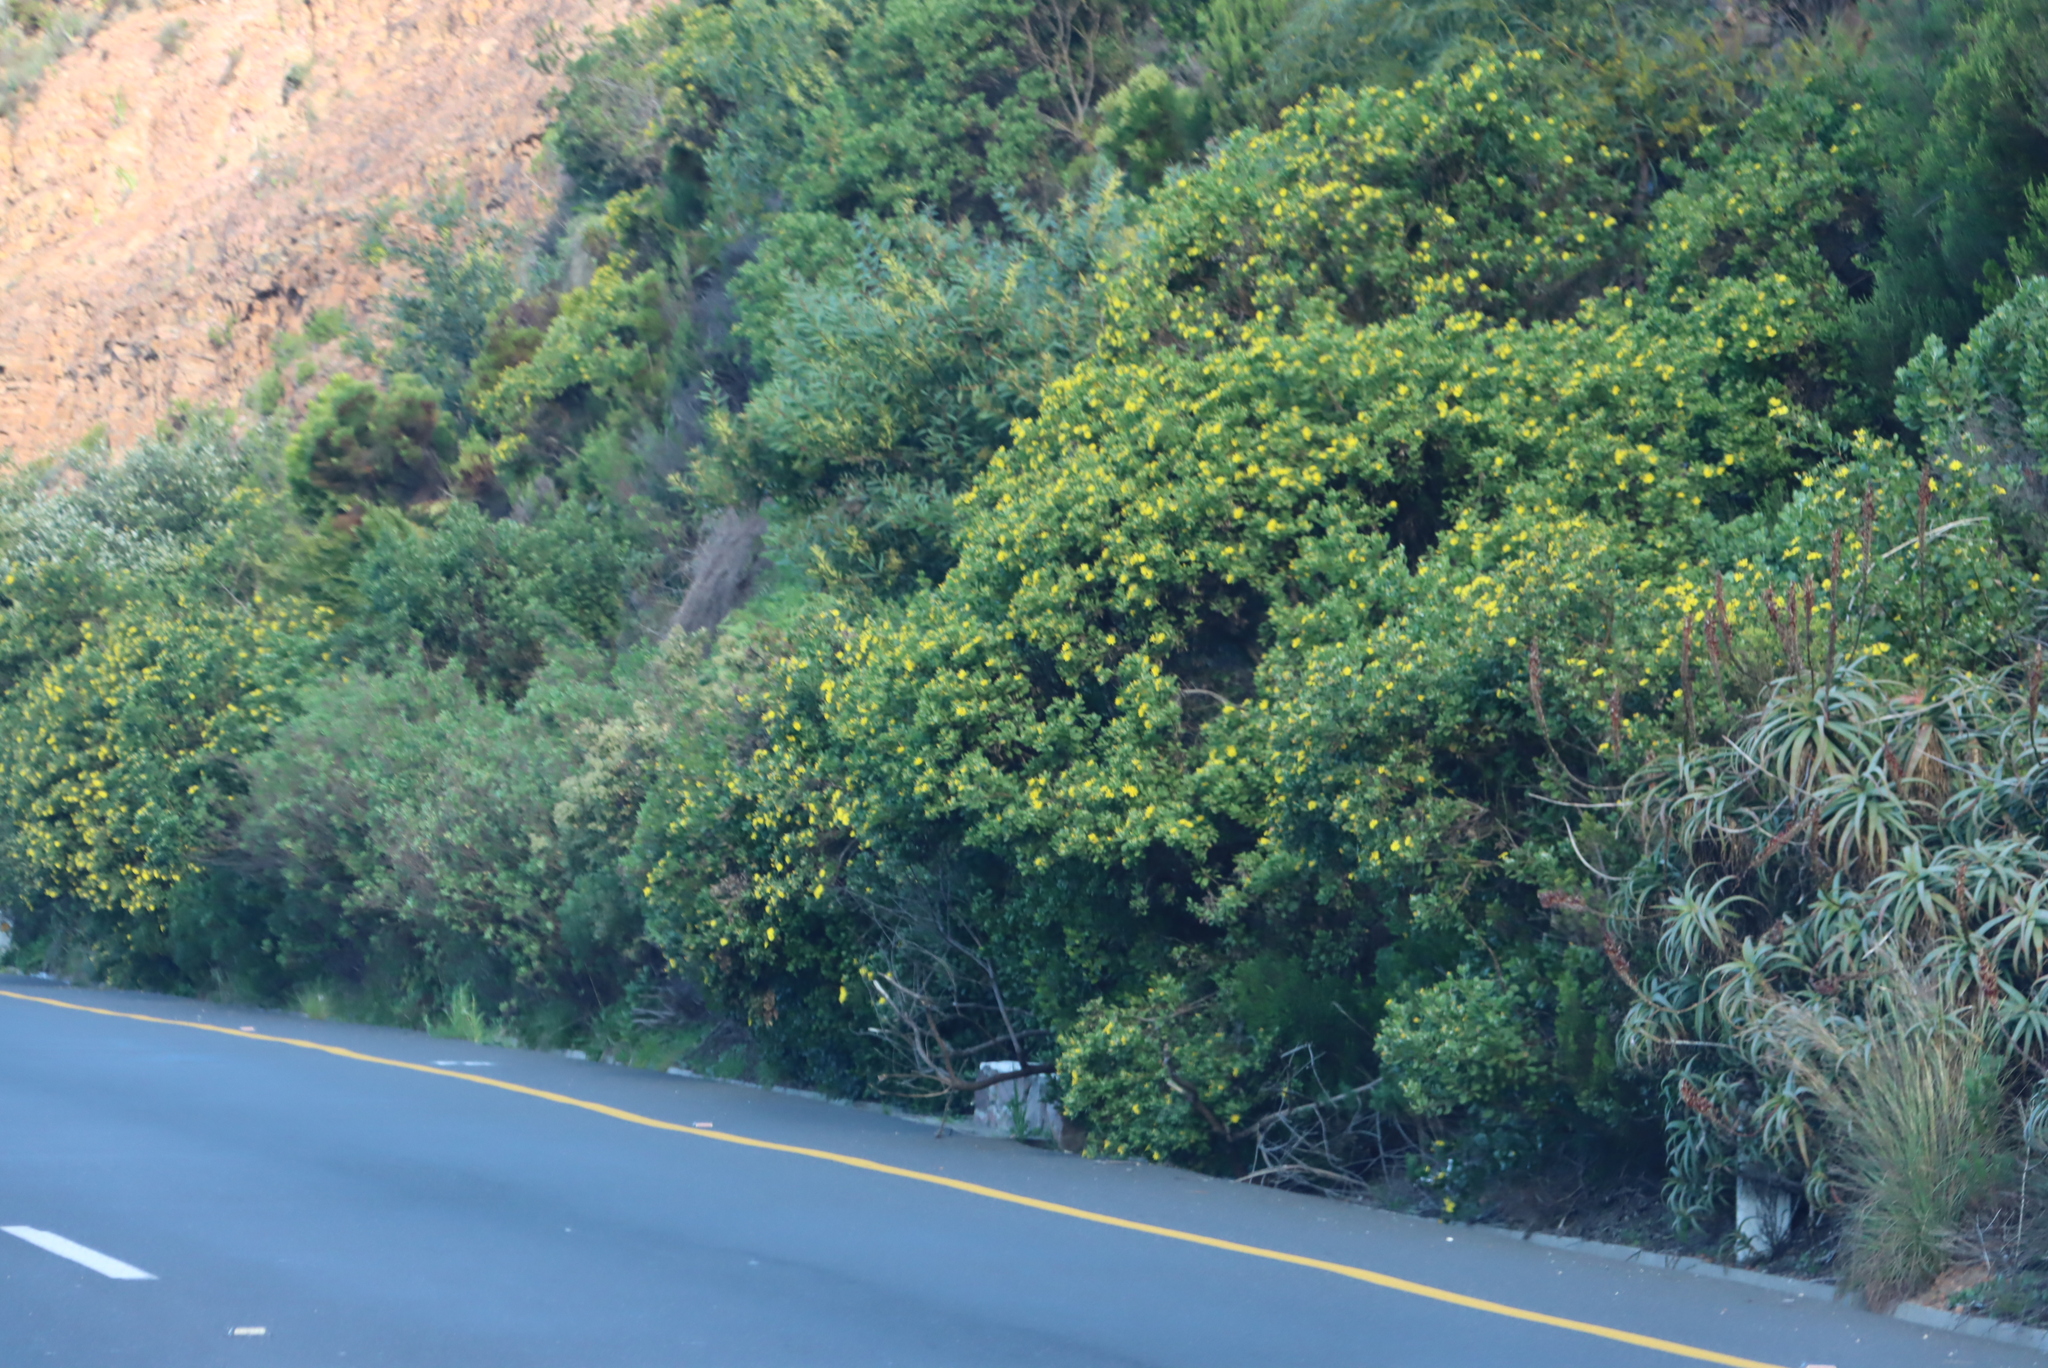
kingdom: Plantae
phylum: Tracheophyta
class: Magnoliopsida
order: Asterales
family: Asteraceae
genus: Osteospermum
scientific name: Osteospermum moniliferum
